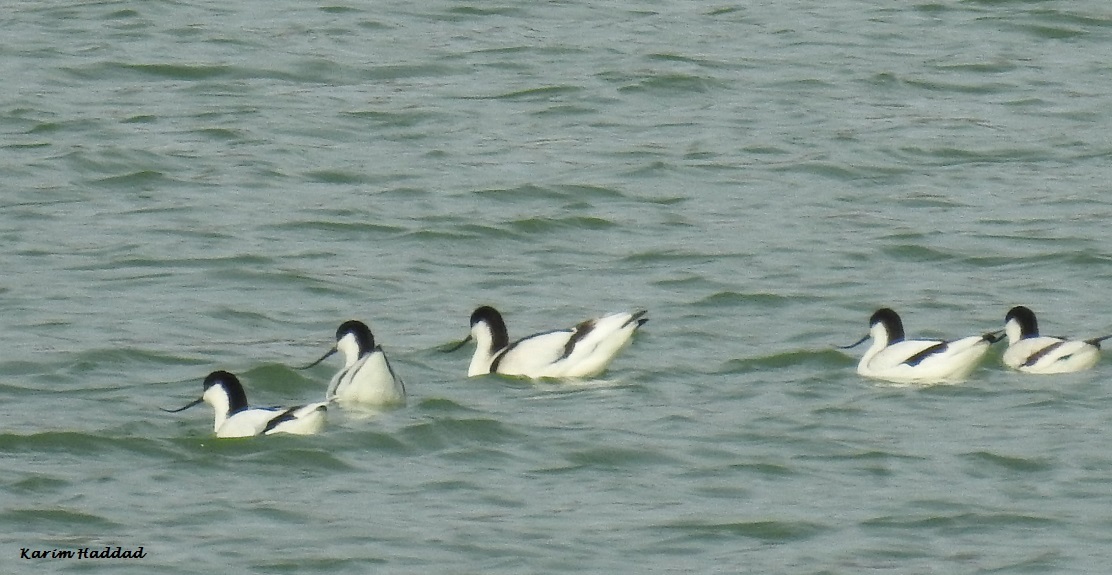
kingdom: Animalia
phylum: Chordata
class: Aves
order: Charadriiformes
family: Recurvirostridae
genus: Recurvirostra
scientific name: Recurvirostra avosetta
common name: Pied avocet
